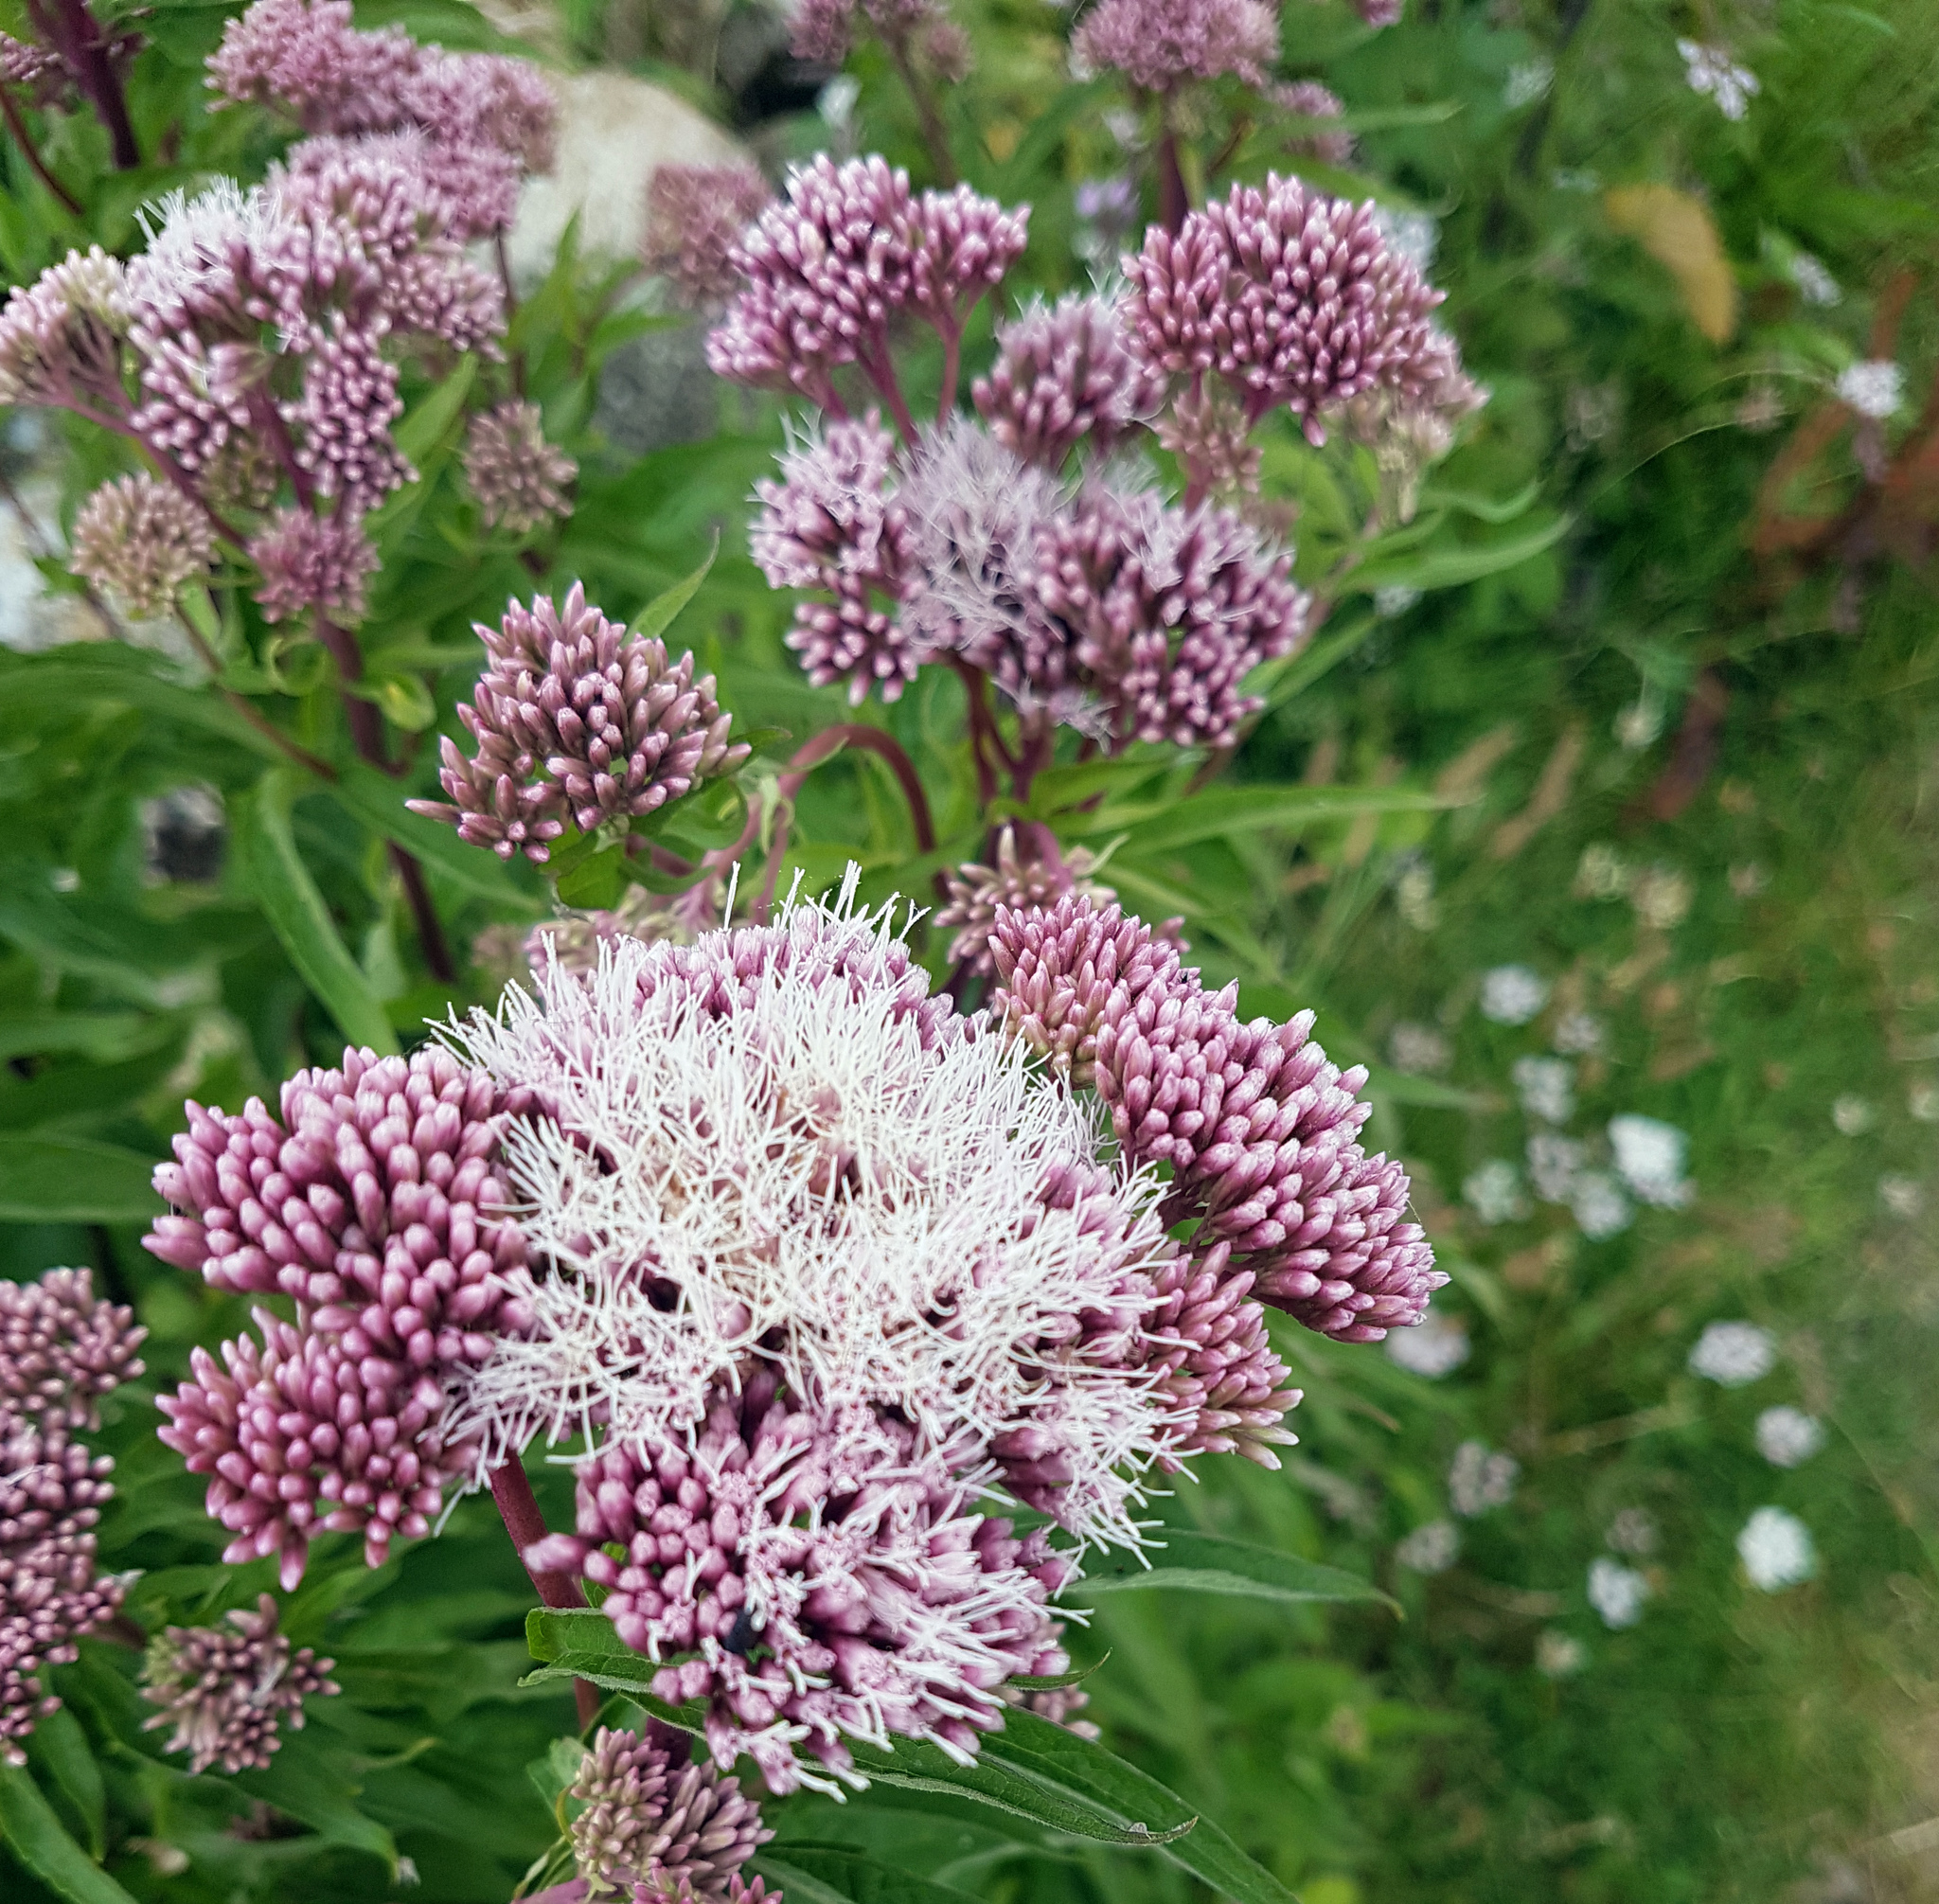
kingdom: Plantae
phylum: Tracheophyta
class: Magnoliopsida
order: Asterales
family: Asteraceae
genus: Eupatorium
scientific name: Eupatorium cannabinum
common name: Hemp-agrimony
